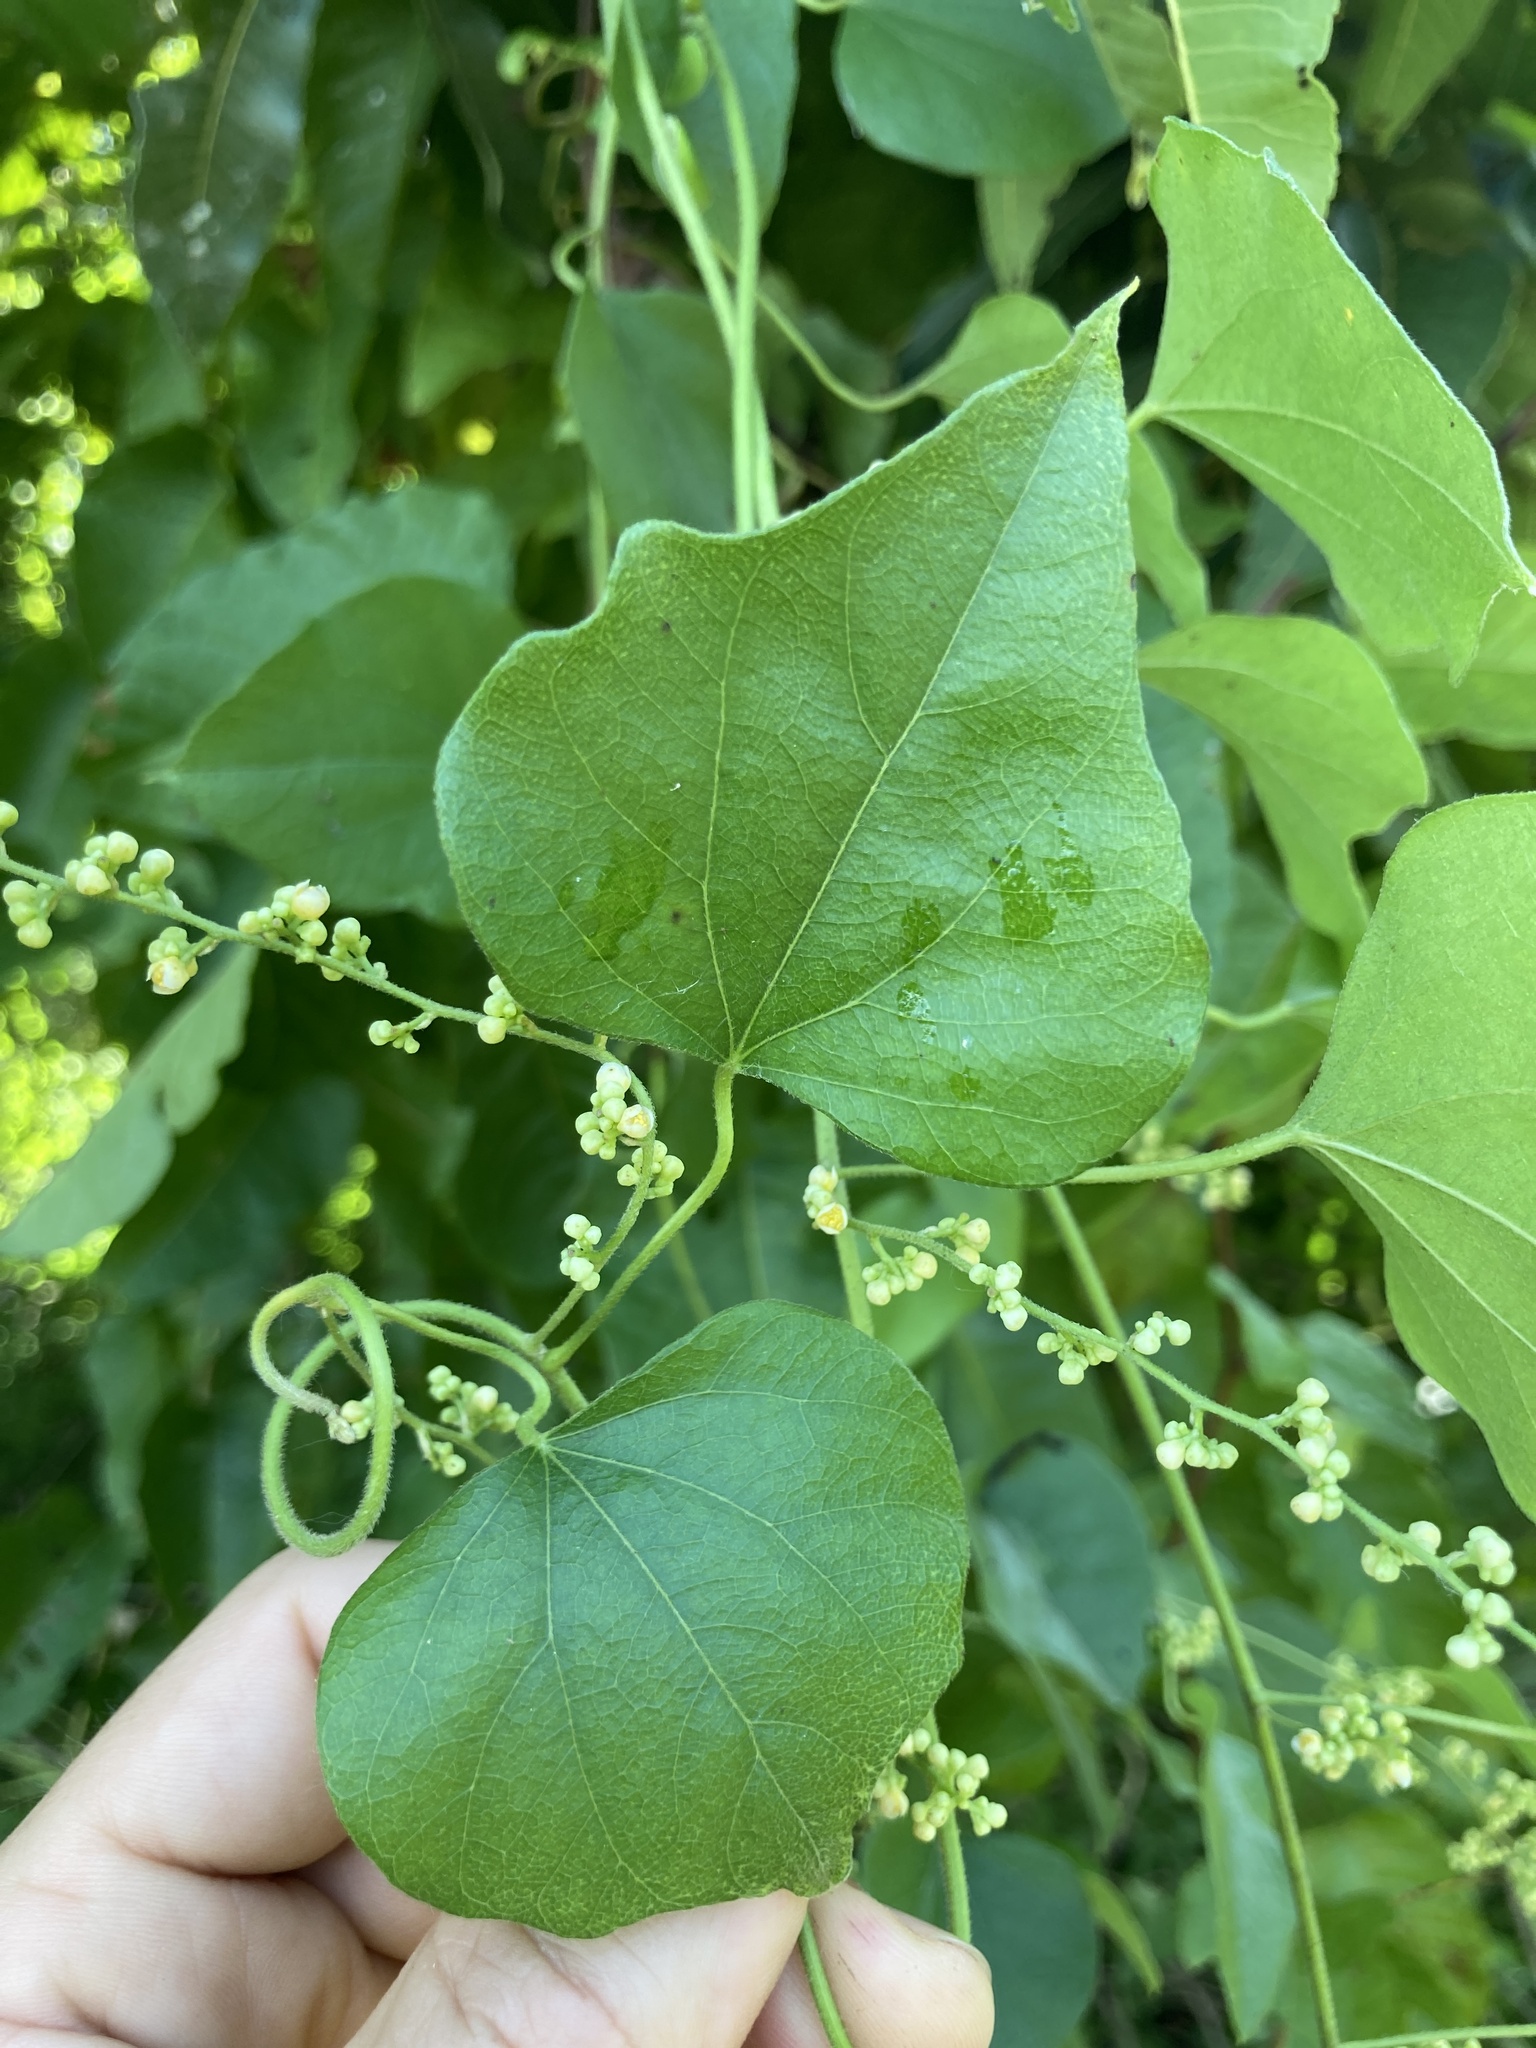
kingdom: Plantae
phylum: Tracheophyta
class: Magnoliopsida
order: Ranunculales
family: Menispermaceae
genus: Cocculus
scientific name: Cocculus carolinus
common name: Carolina moonseed
